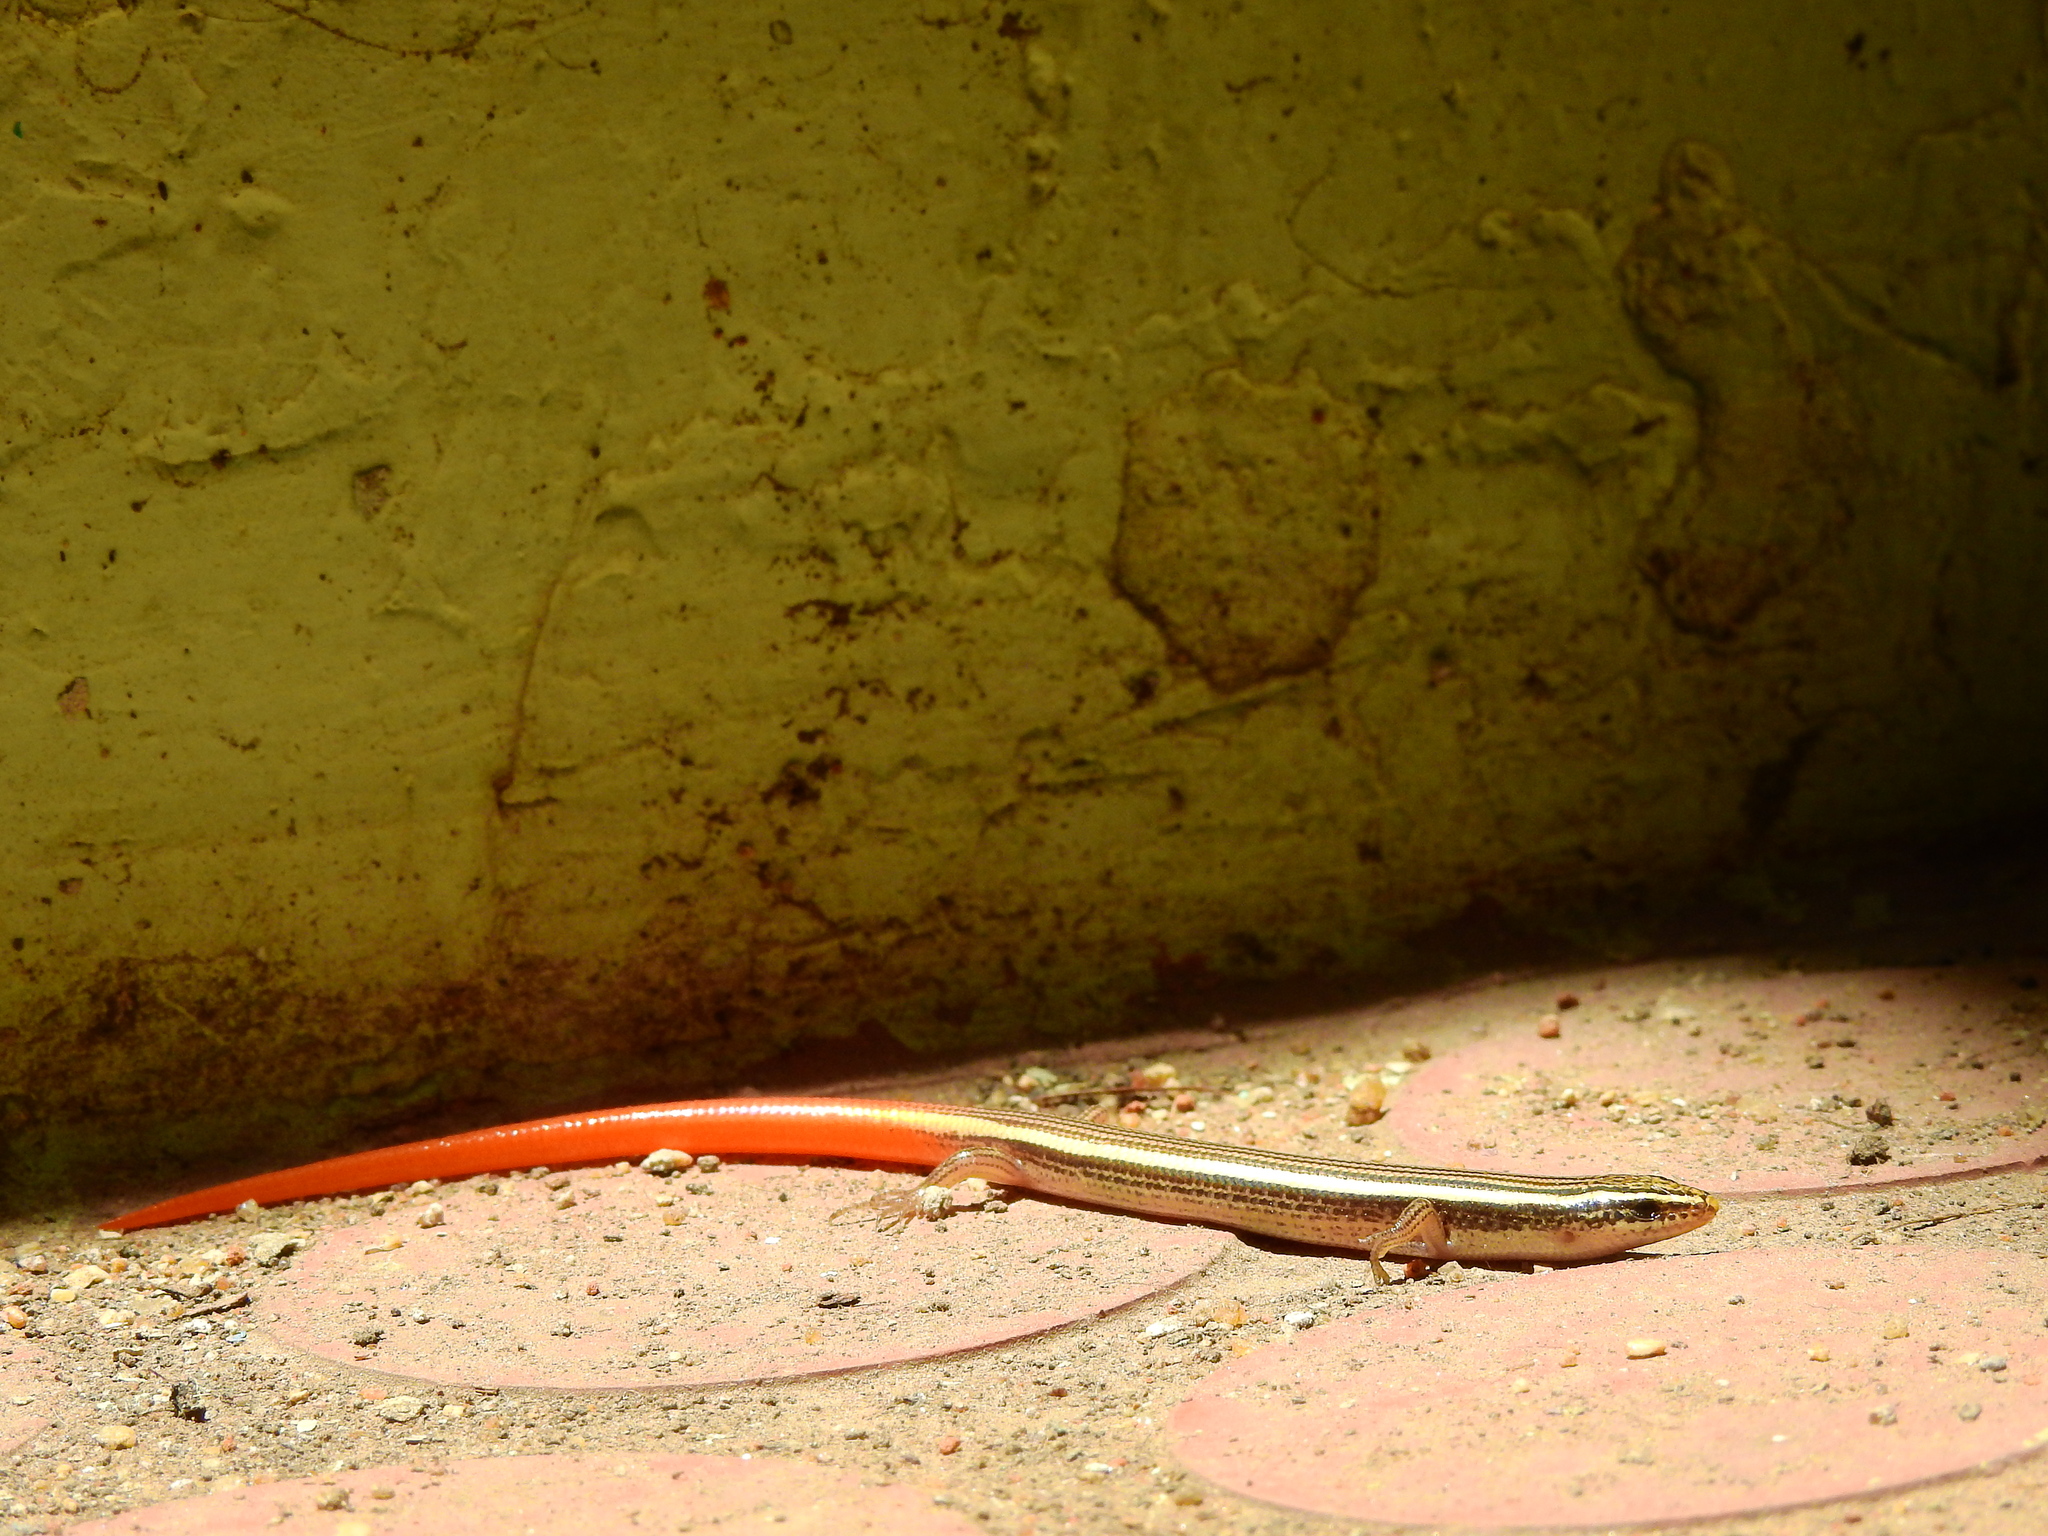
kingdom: Animalia
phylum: Chordata
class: Squamata
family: Scincidae
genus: Riopa
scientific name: Riopa punctata
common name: Common dotted garden skink
